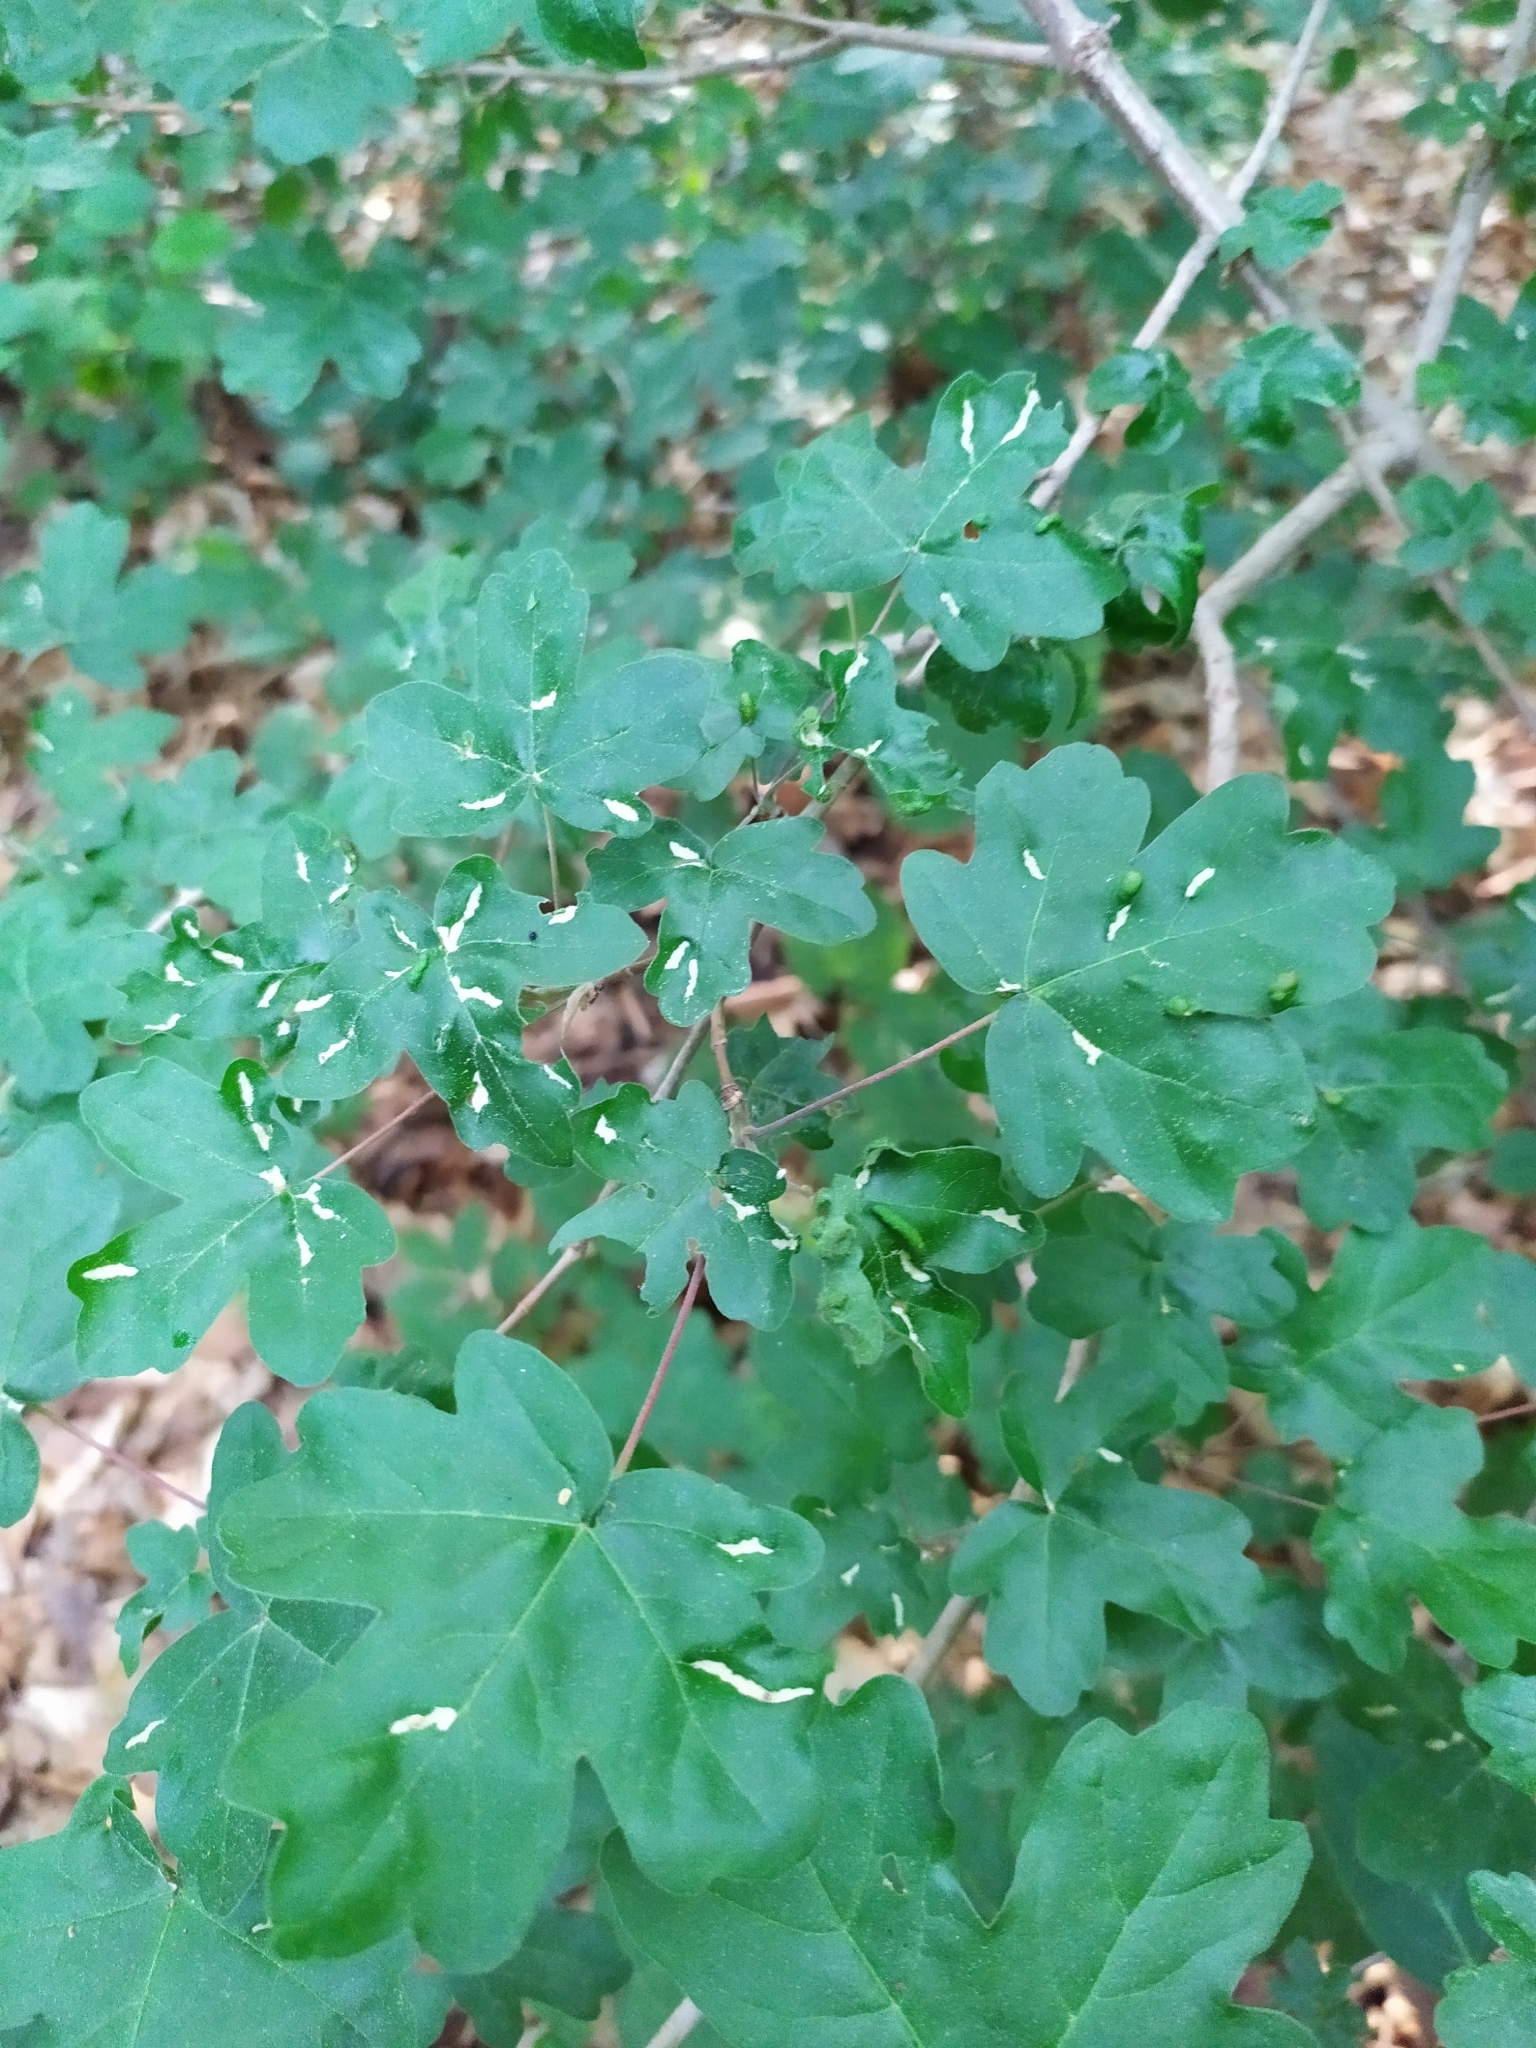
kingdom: Plantae
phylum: Tracheophyta
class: Magnoliopsida
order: Sapindales
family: Sapindaceae
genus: Acer
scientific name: Acer campestre
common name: Field maple
